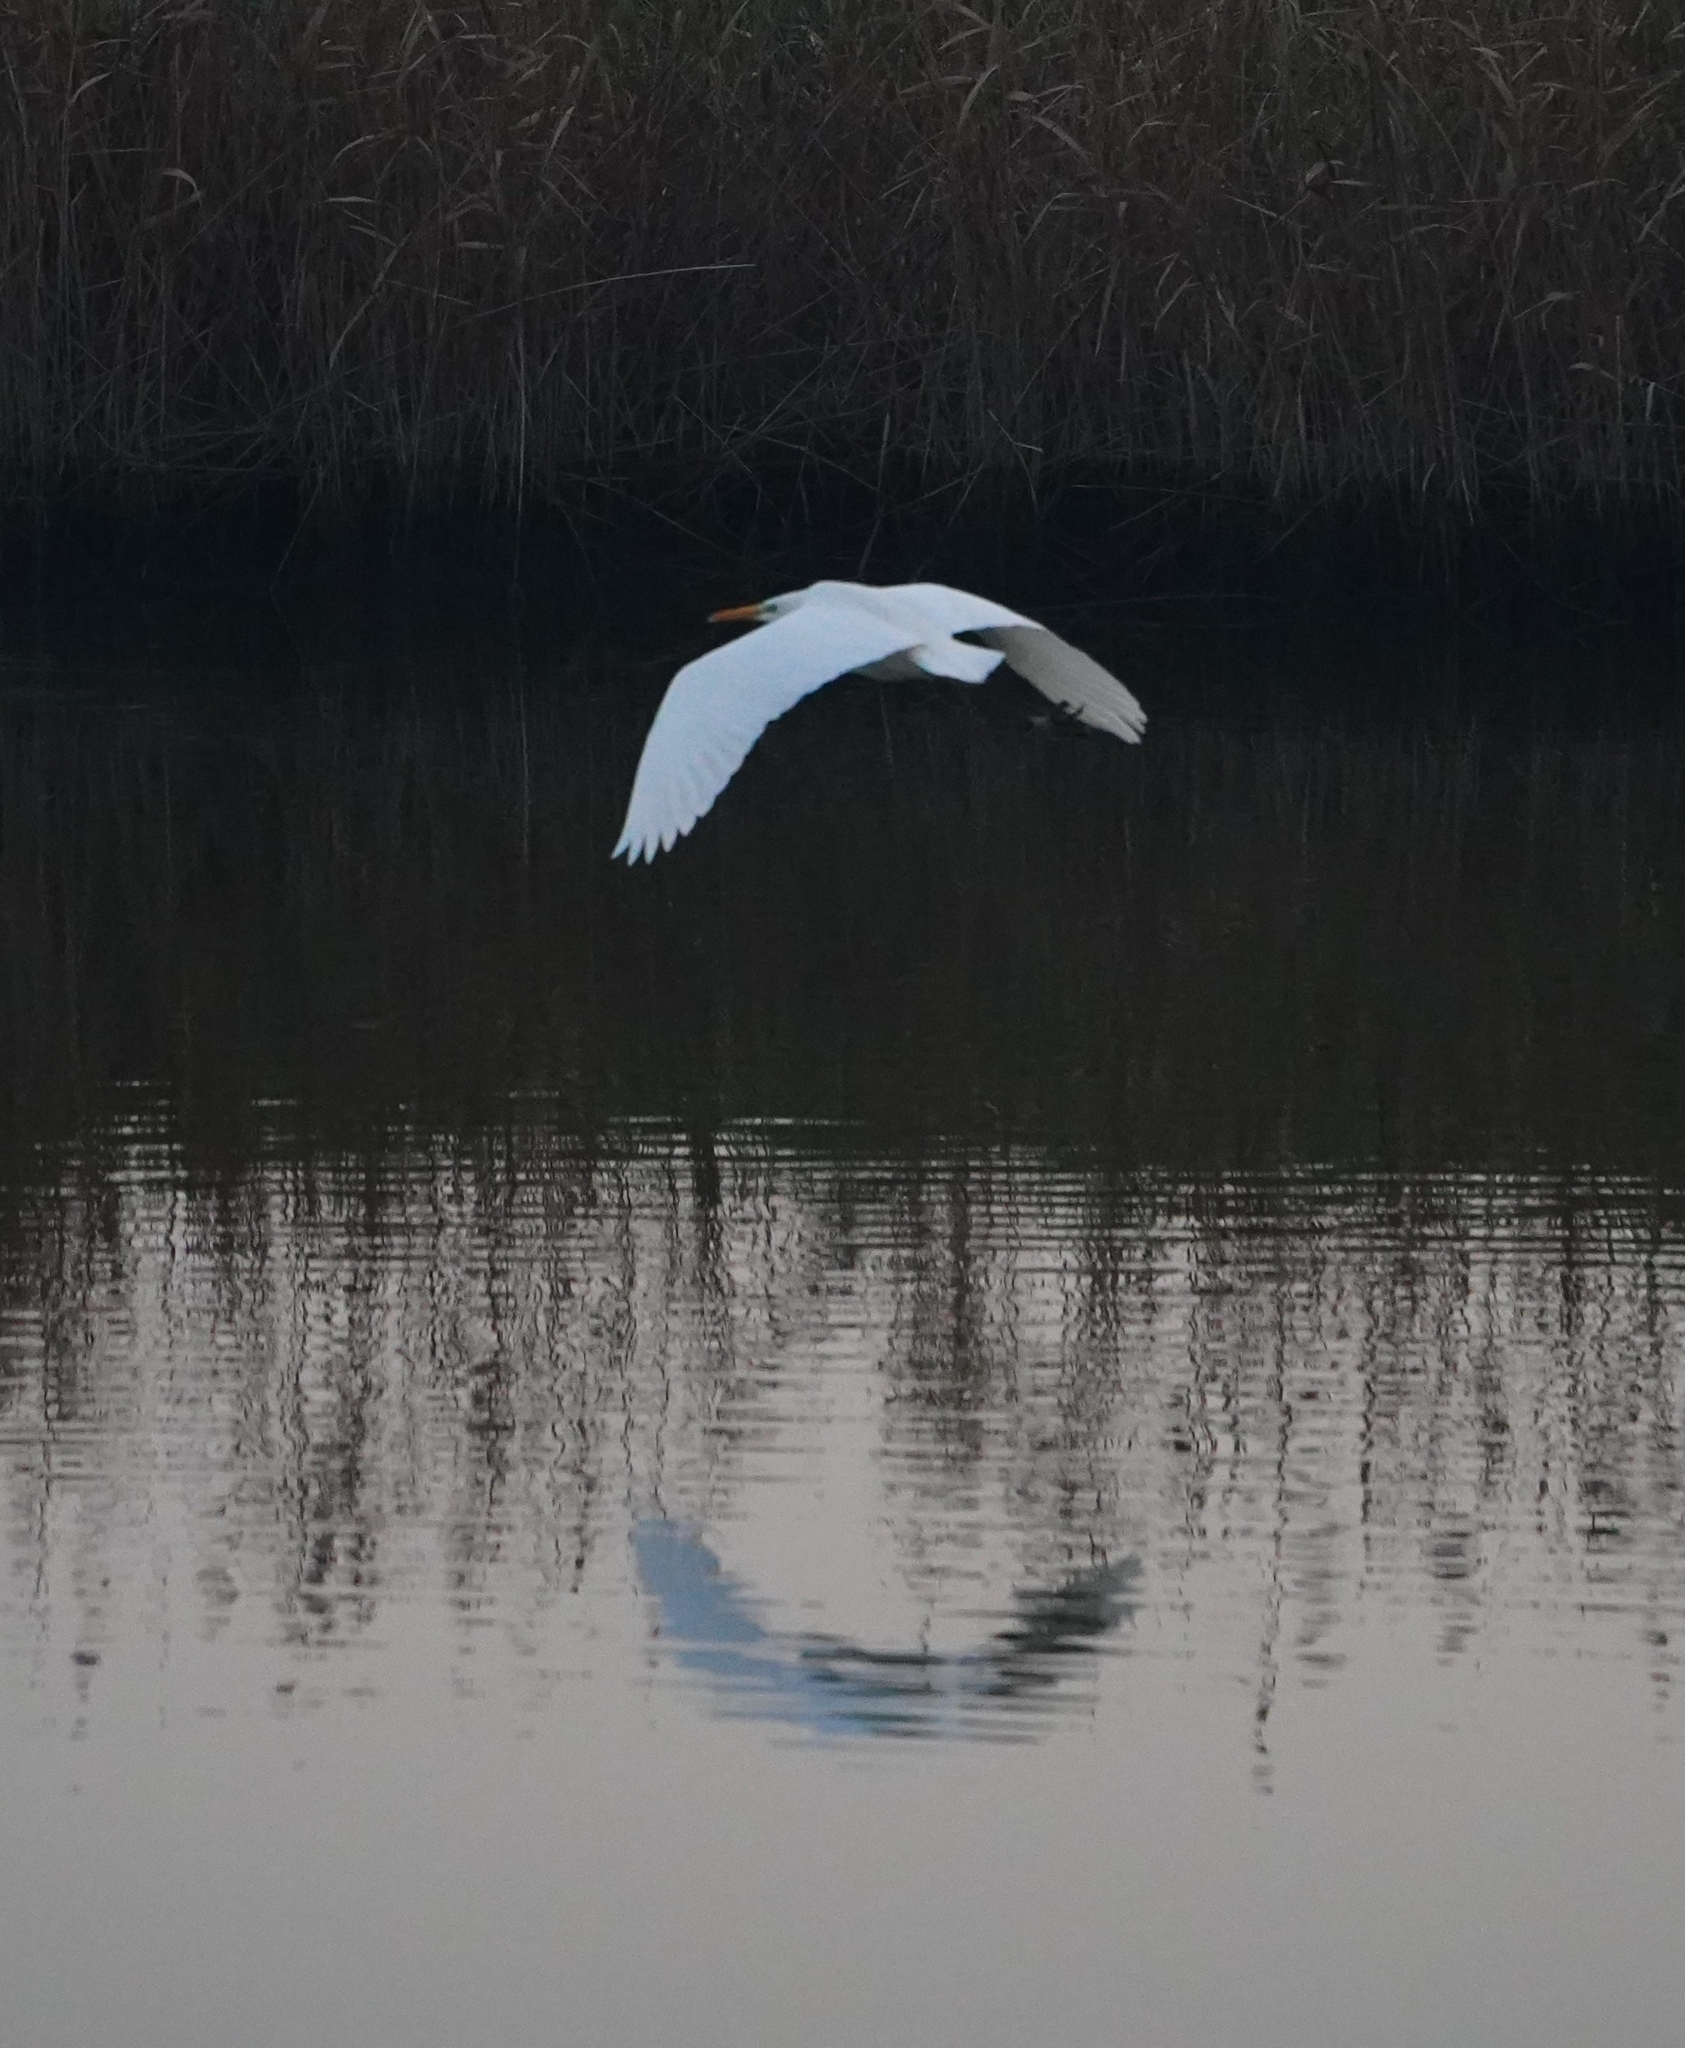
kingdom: Animalia
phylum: Chordata
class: Aves
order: Pelecaniformes
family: Ardeidae
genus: Ardea
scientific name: Ardea alba
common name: Great egret
